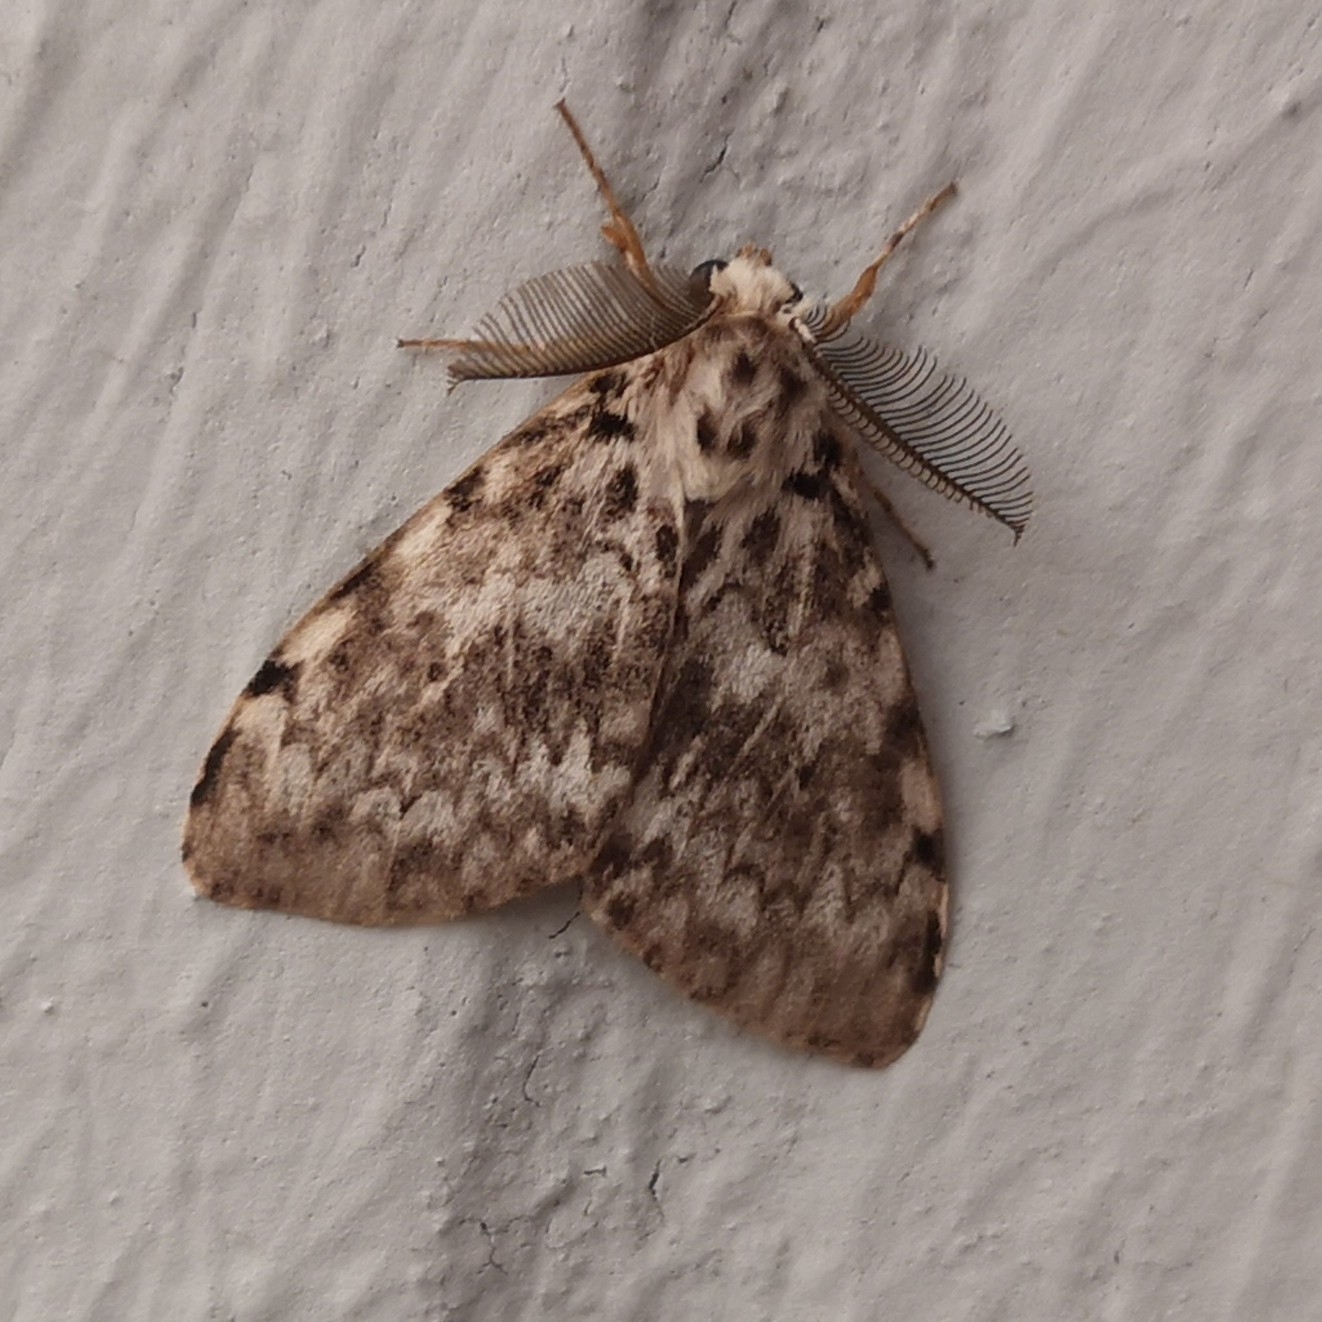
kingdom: Animalia
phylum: Arthropoda
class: Insecta
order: Lepidoptera
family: Erebidae
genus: Lymantria
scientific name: Lymantria monacha
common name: Black arches
